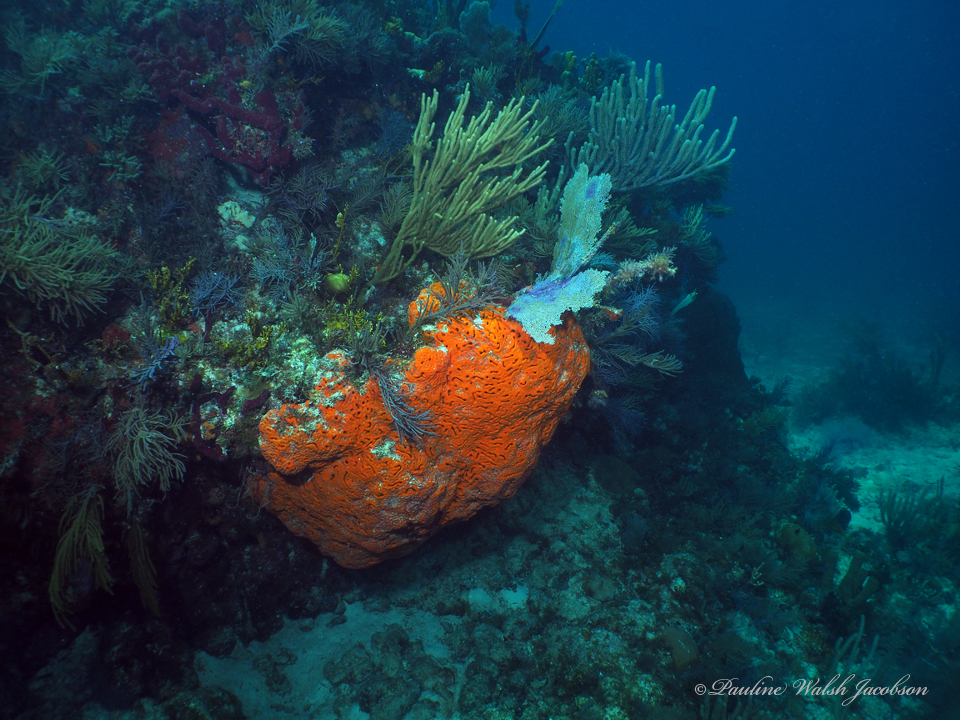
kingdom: Animalia
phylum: Porifera
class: Demospongiae
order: Agelasida
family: Agelasidae
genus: Agelas
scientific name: Agelas clathrodes
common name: Orange elephant ear sponge
